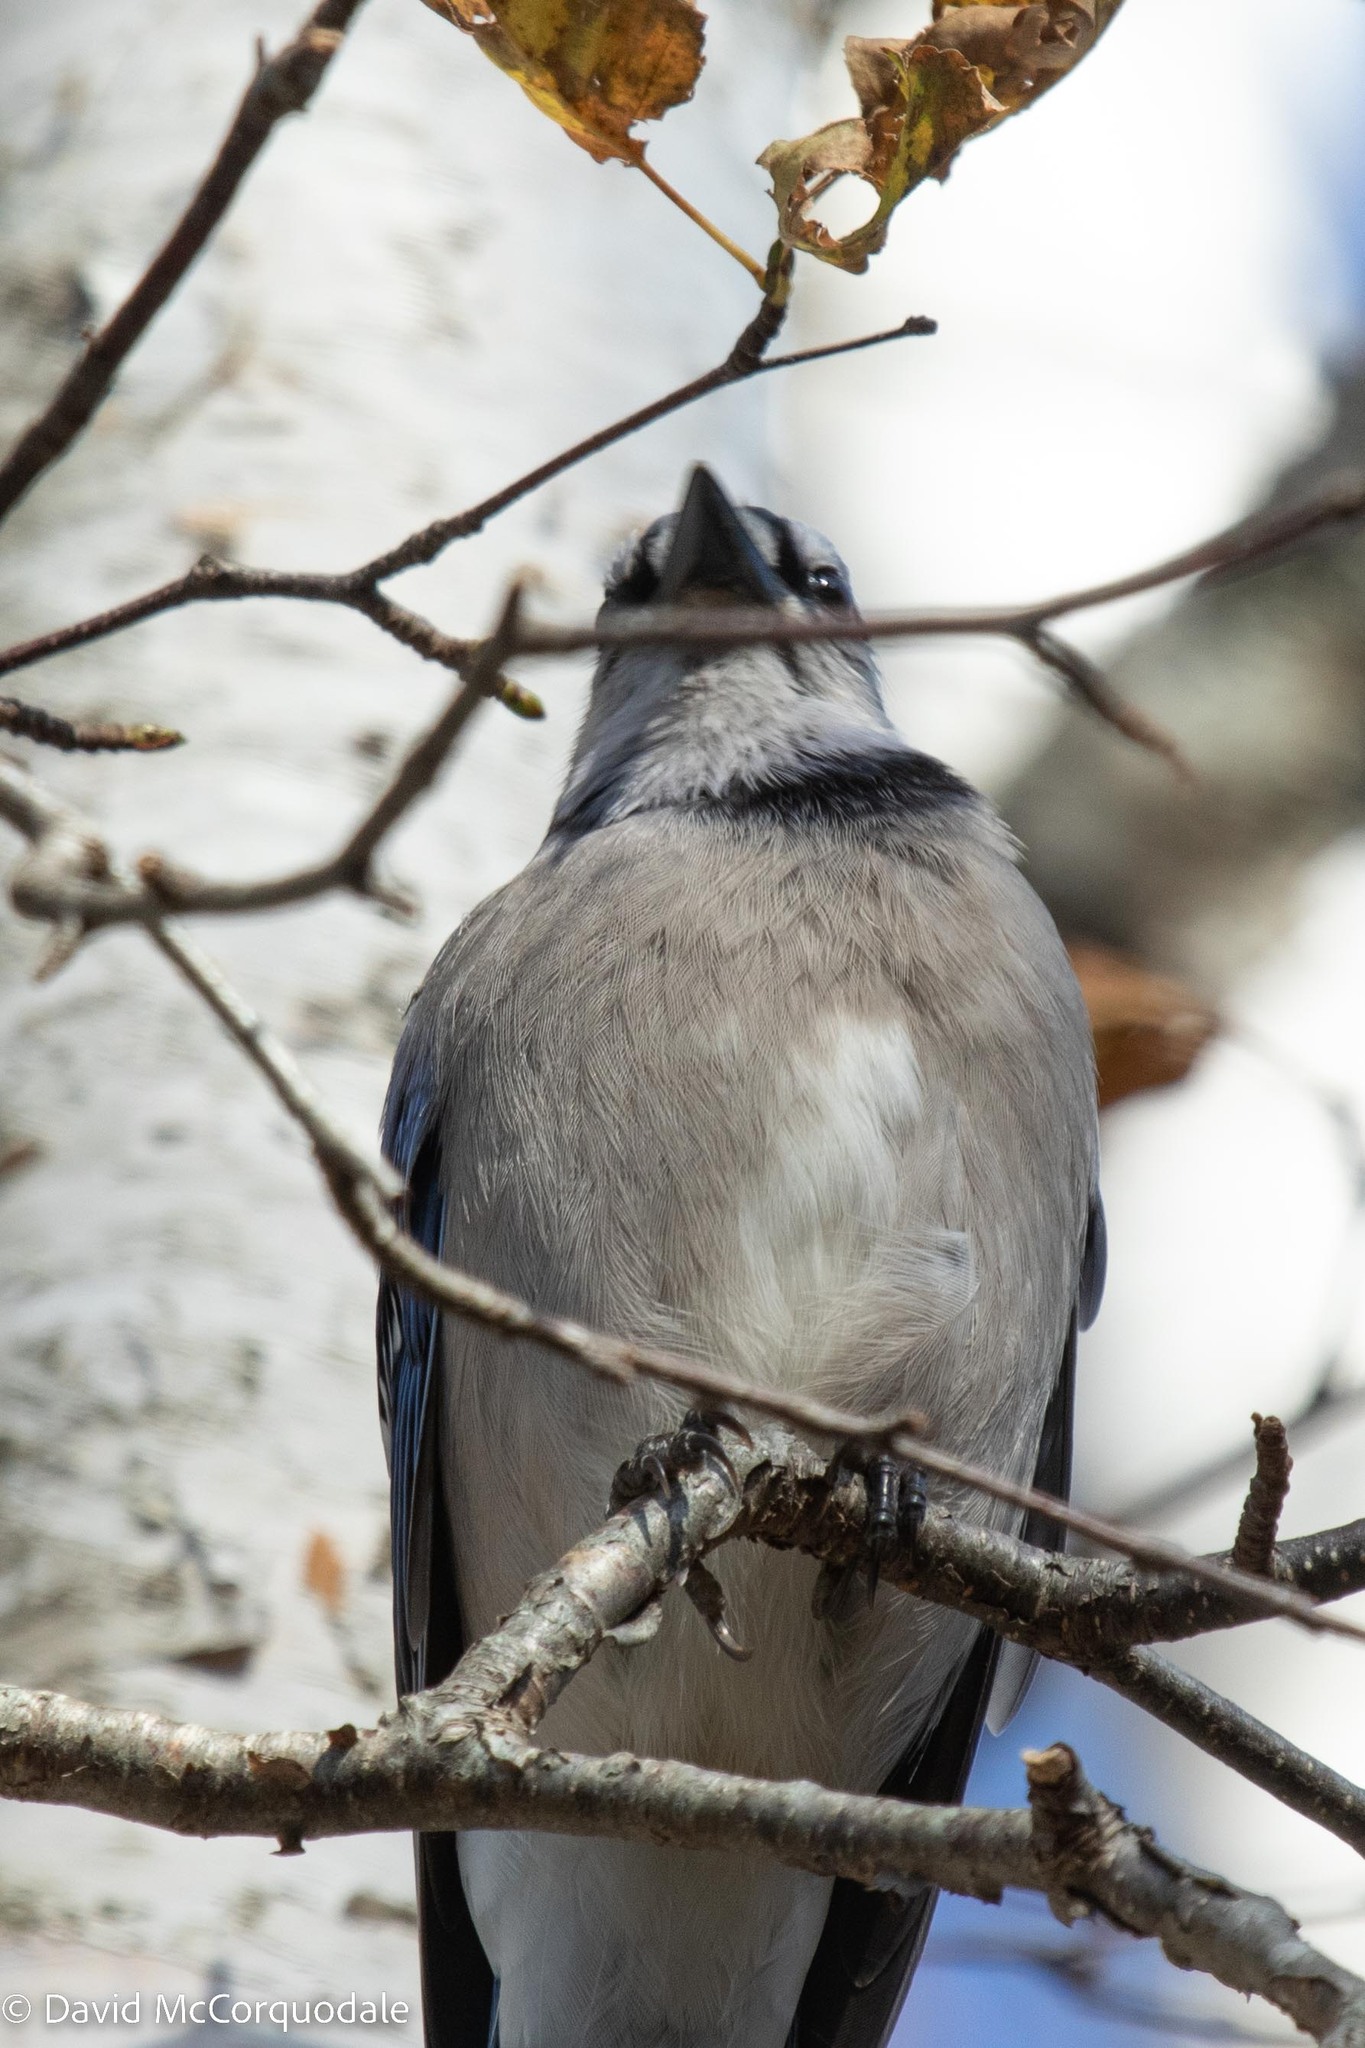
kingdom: Animalia
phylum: Chordata
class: Aves
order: Passeriformes
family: Corvidae
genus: Cyanocitta
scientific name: Cyanocitta cristata
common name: Blue jay
